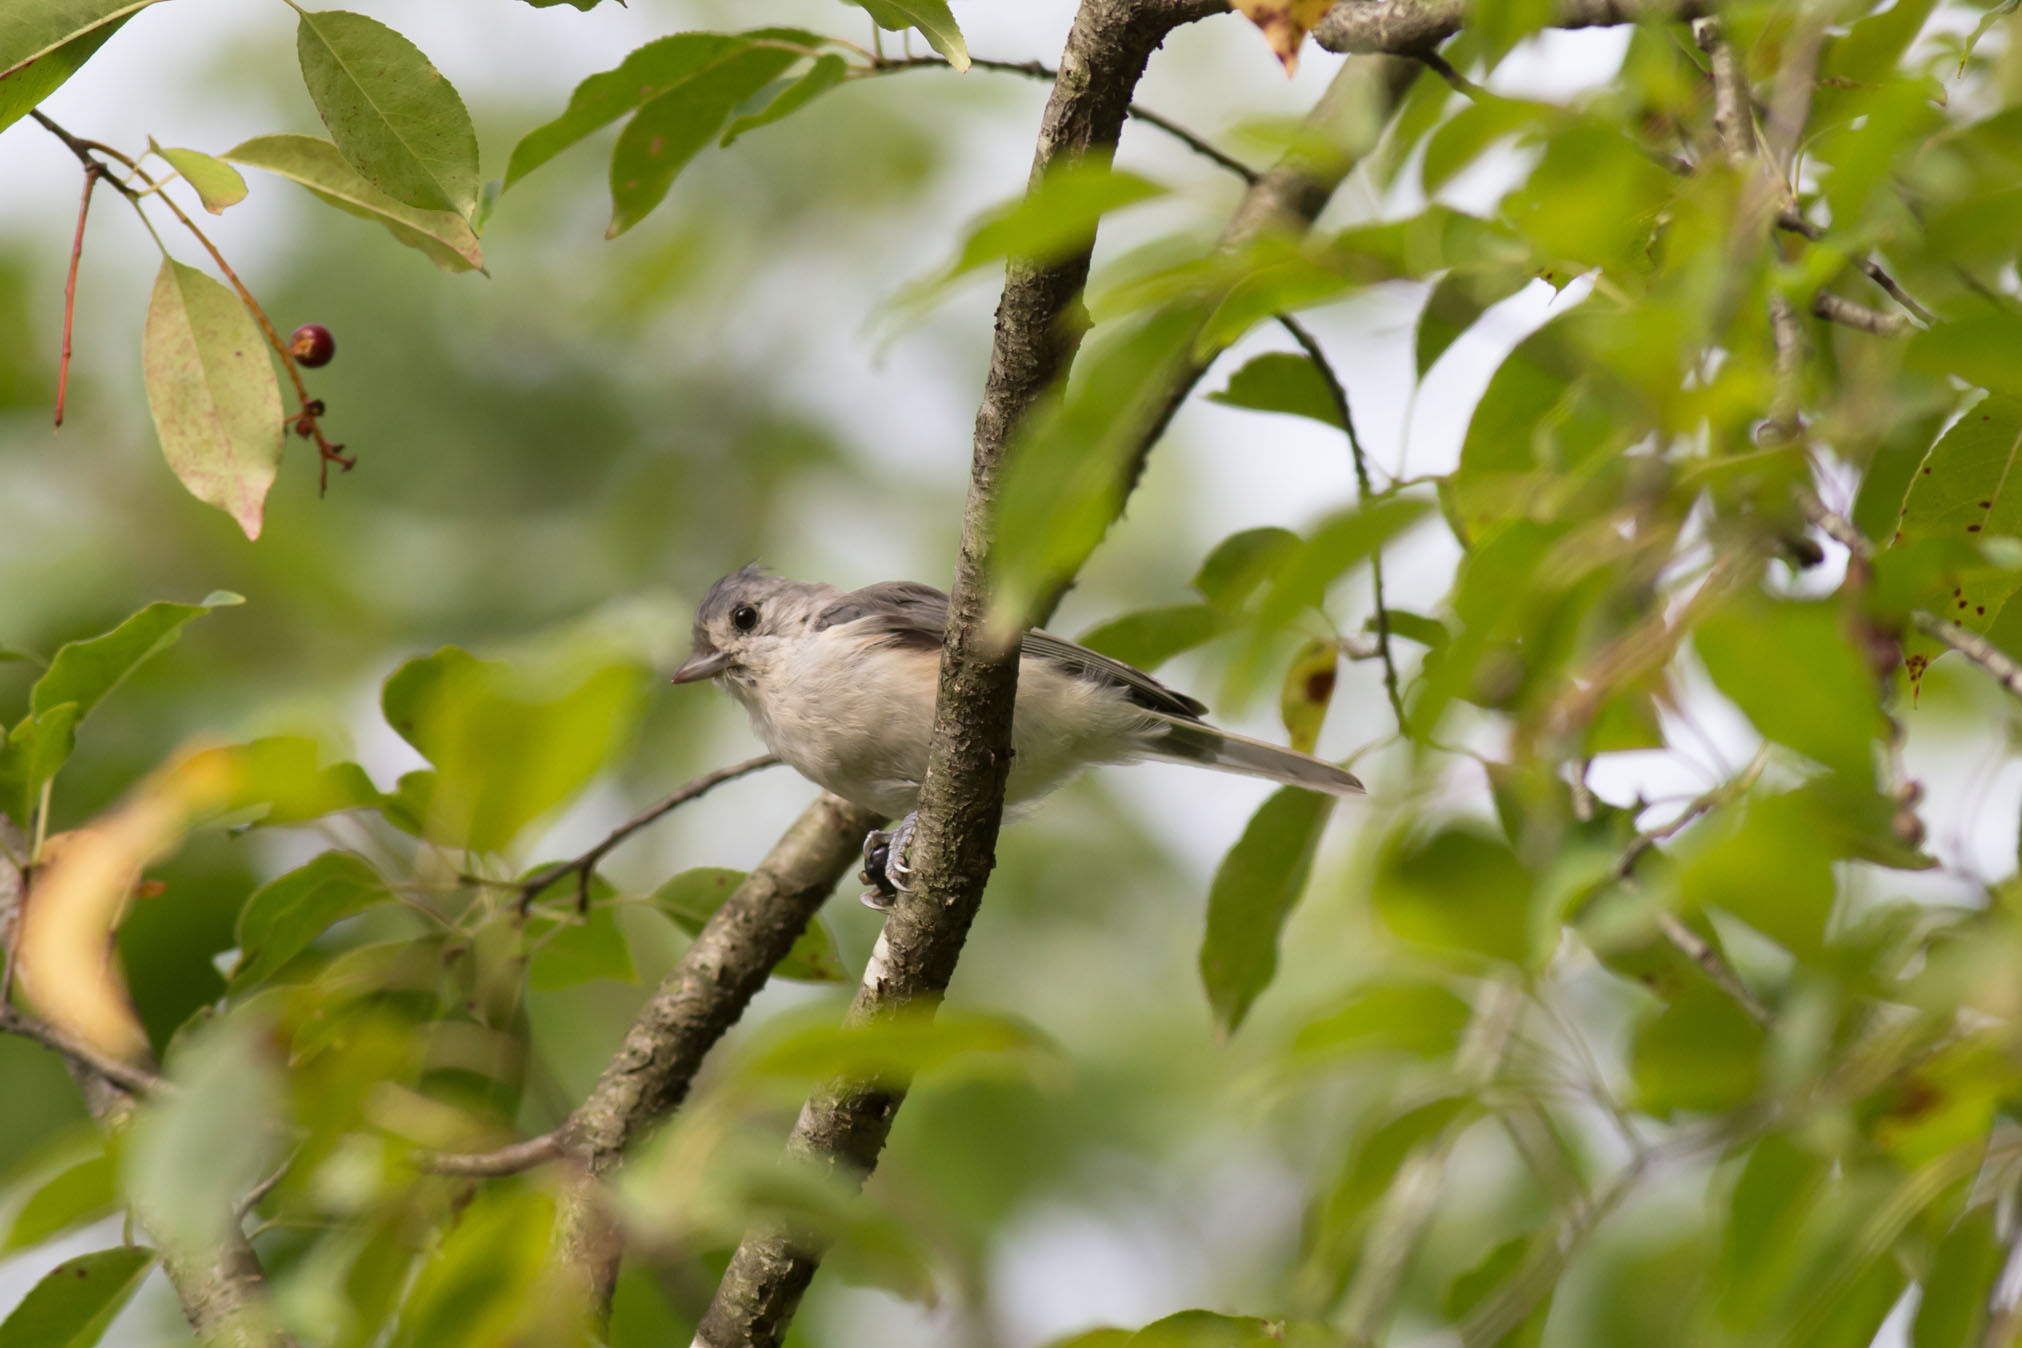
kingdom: Animalia
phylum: Chordata
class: Aves
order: Passeriformes
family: Paridae
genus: Baeolophus
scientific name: Baeolophus bicolor
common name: Tufted titmouse
